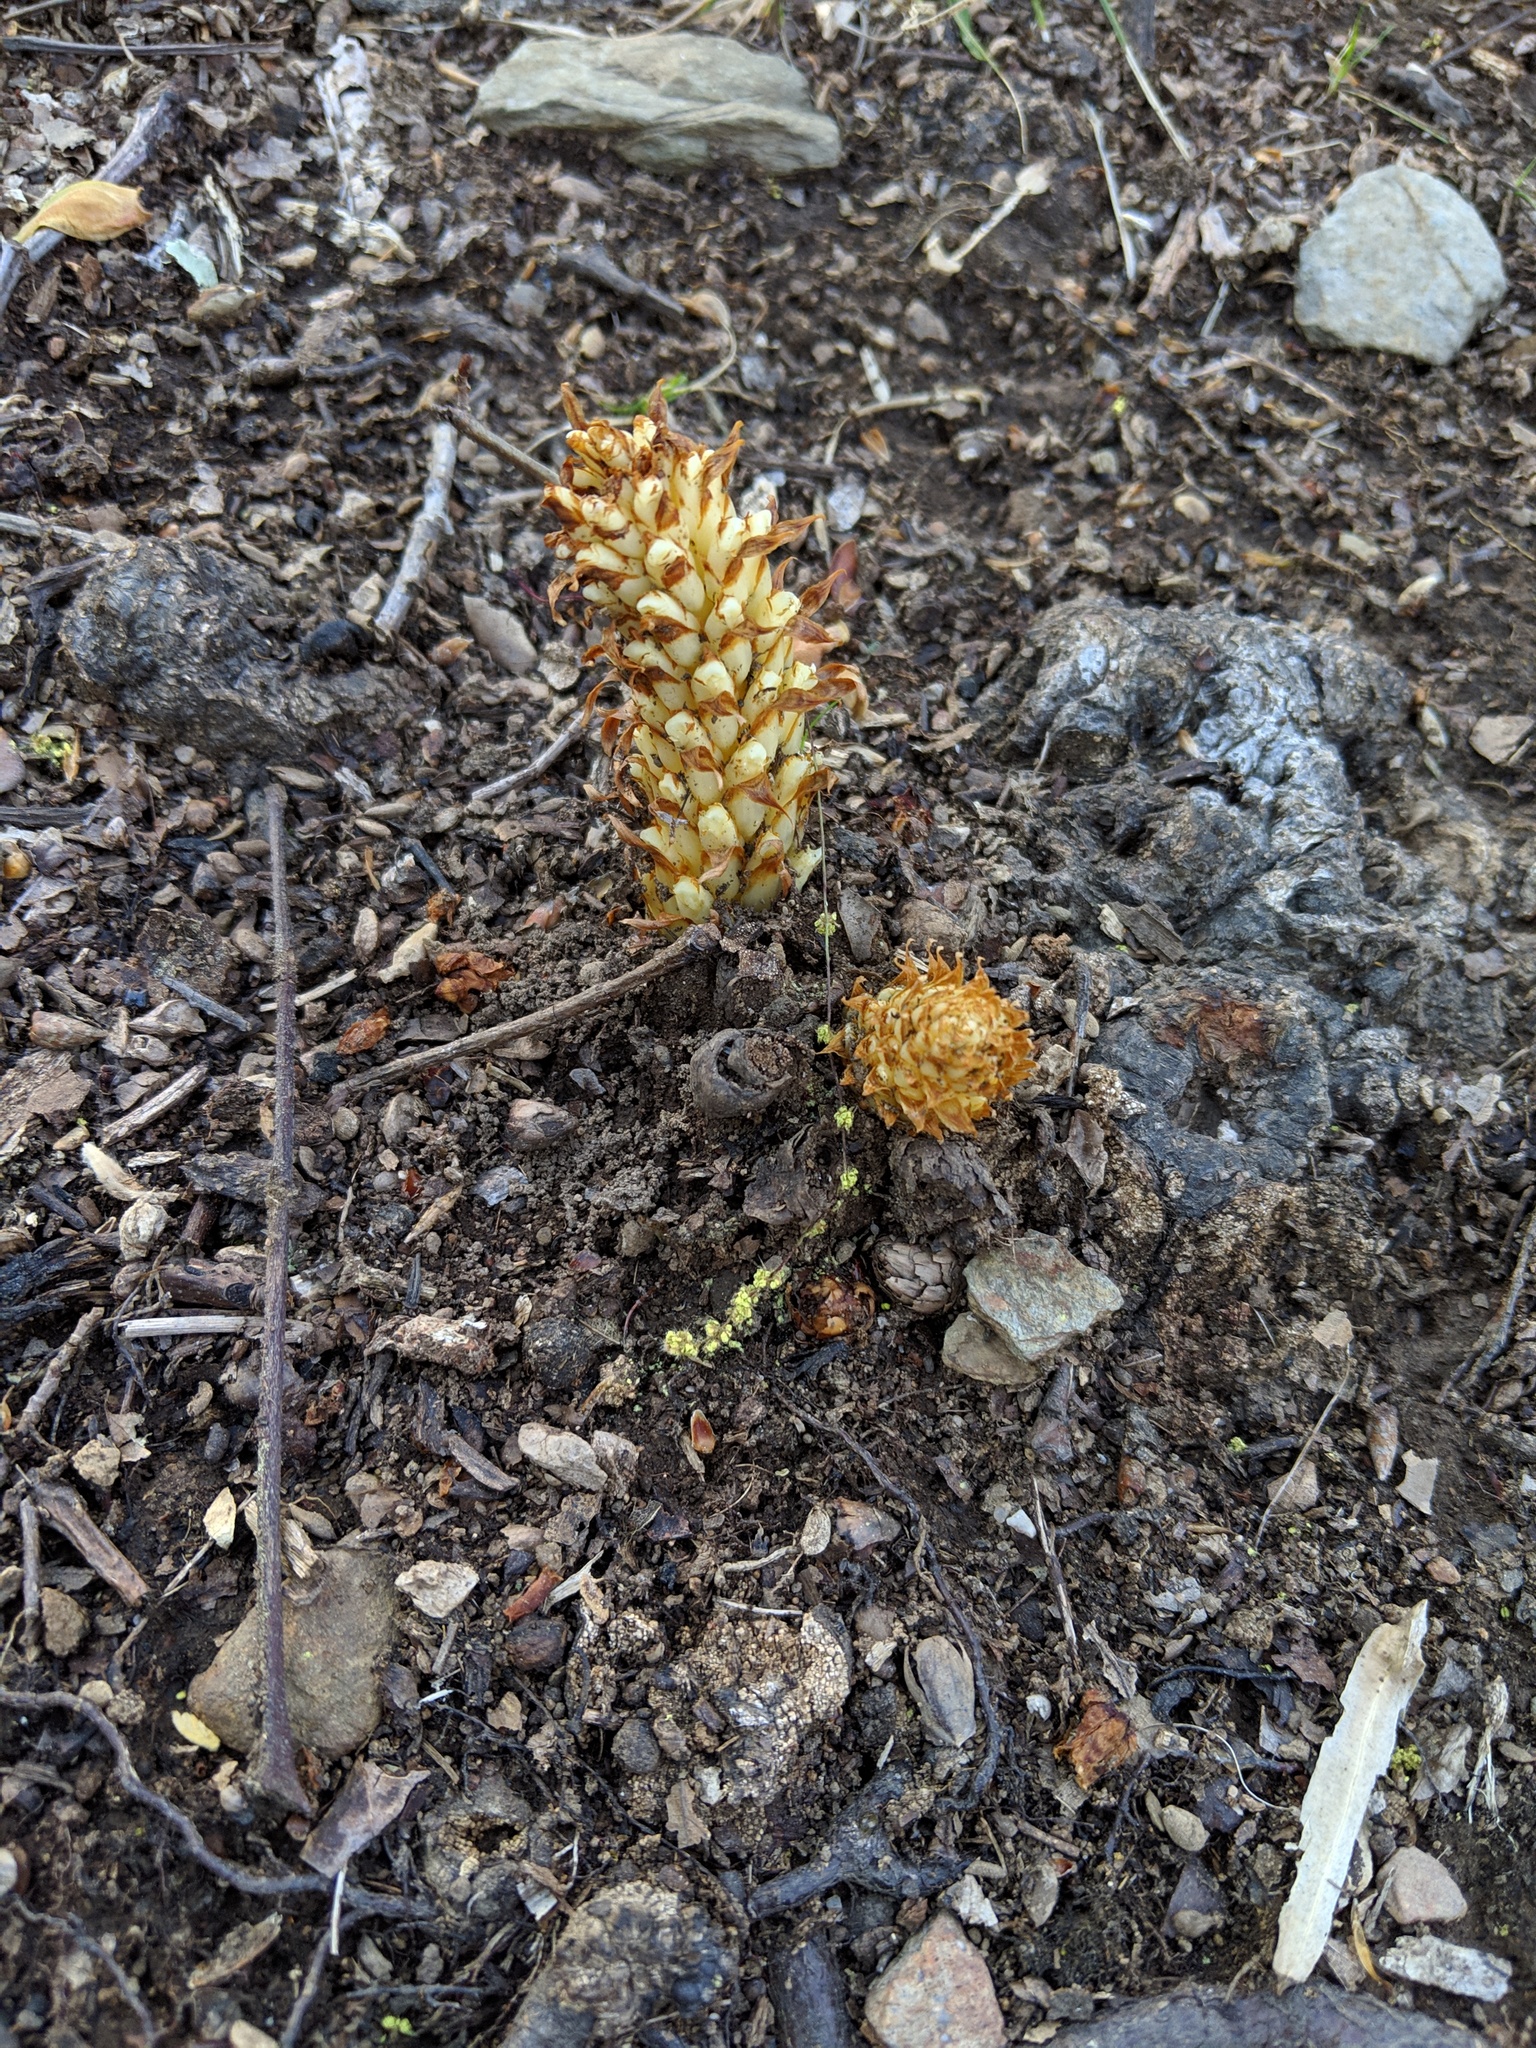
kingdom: Plantae
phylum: Tracheophyta
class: Magnoliopsida
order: Lamiales
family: Orobanchaceae
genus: Conopholis
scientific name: Conopholis americana
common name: American cancer-root
